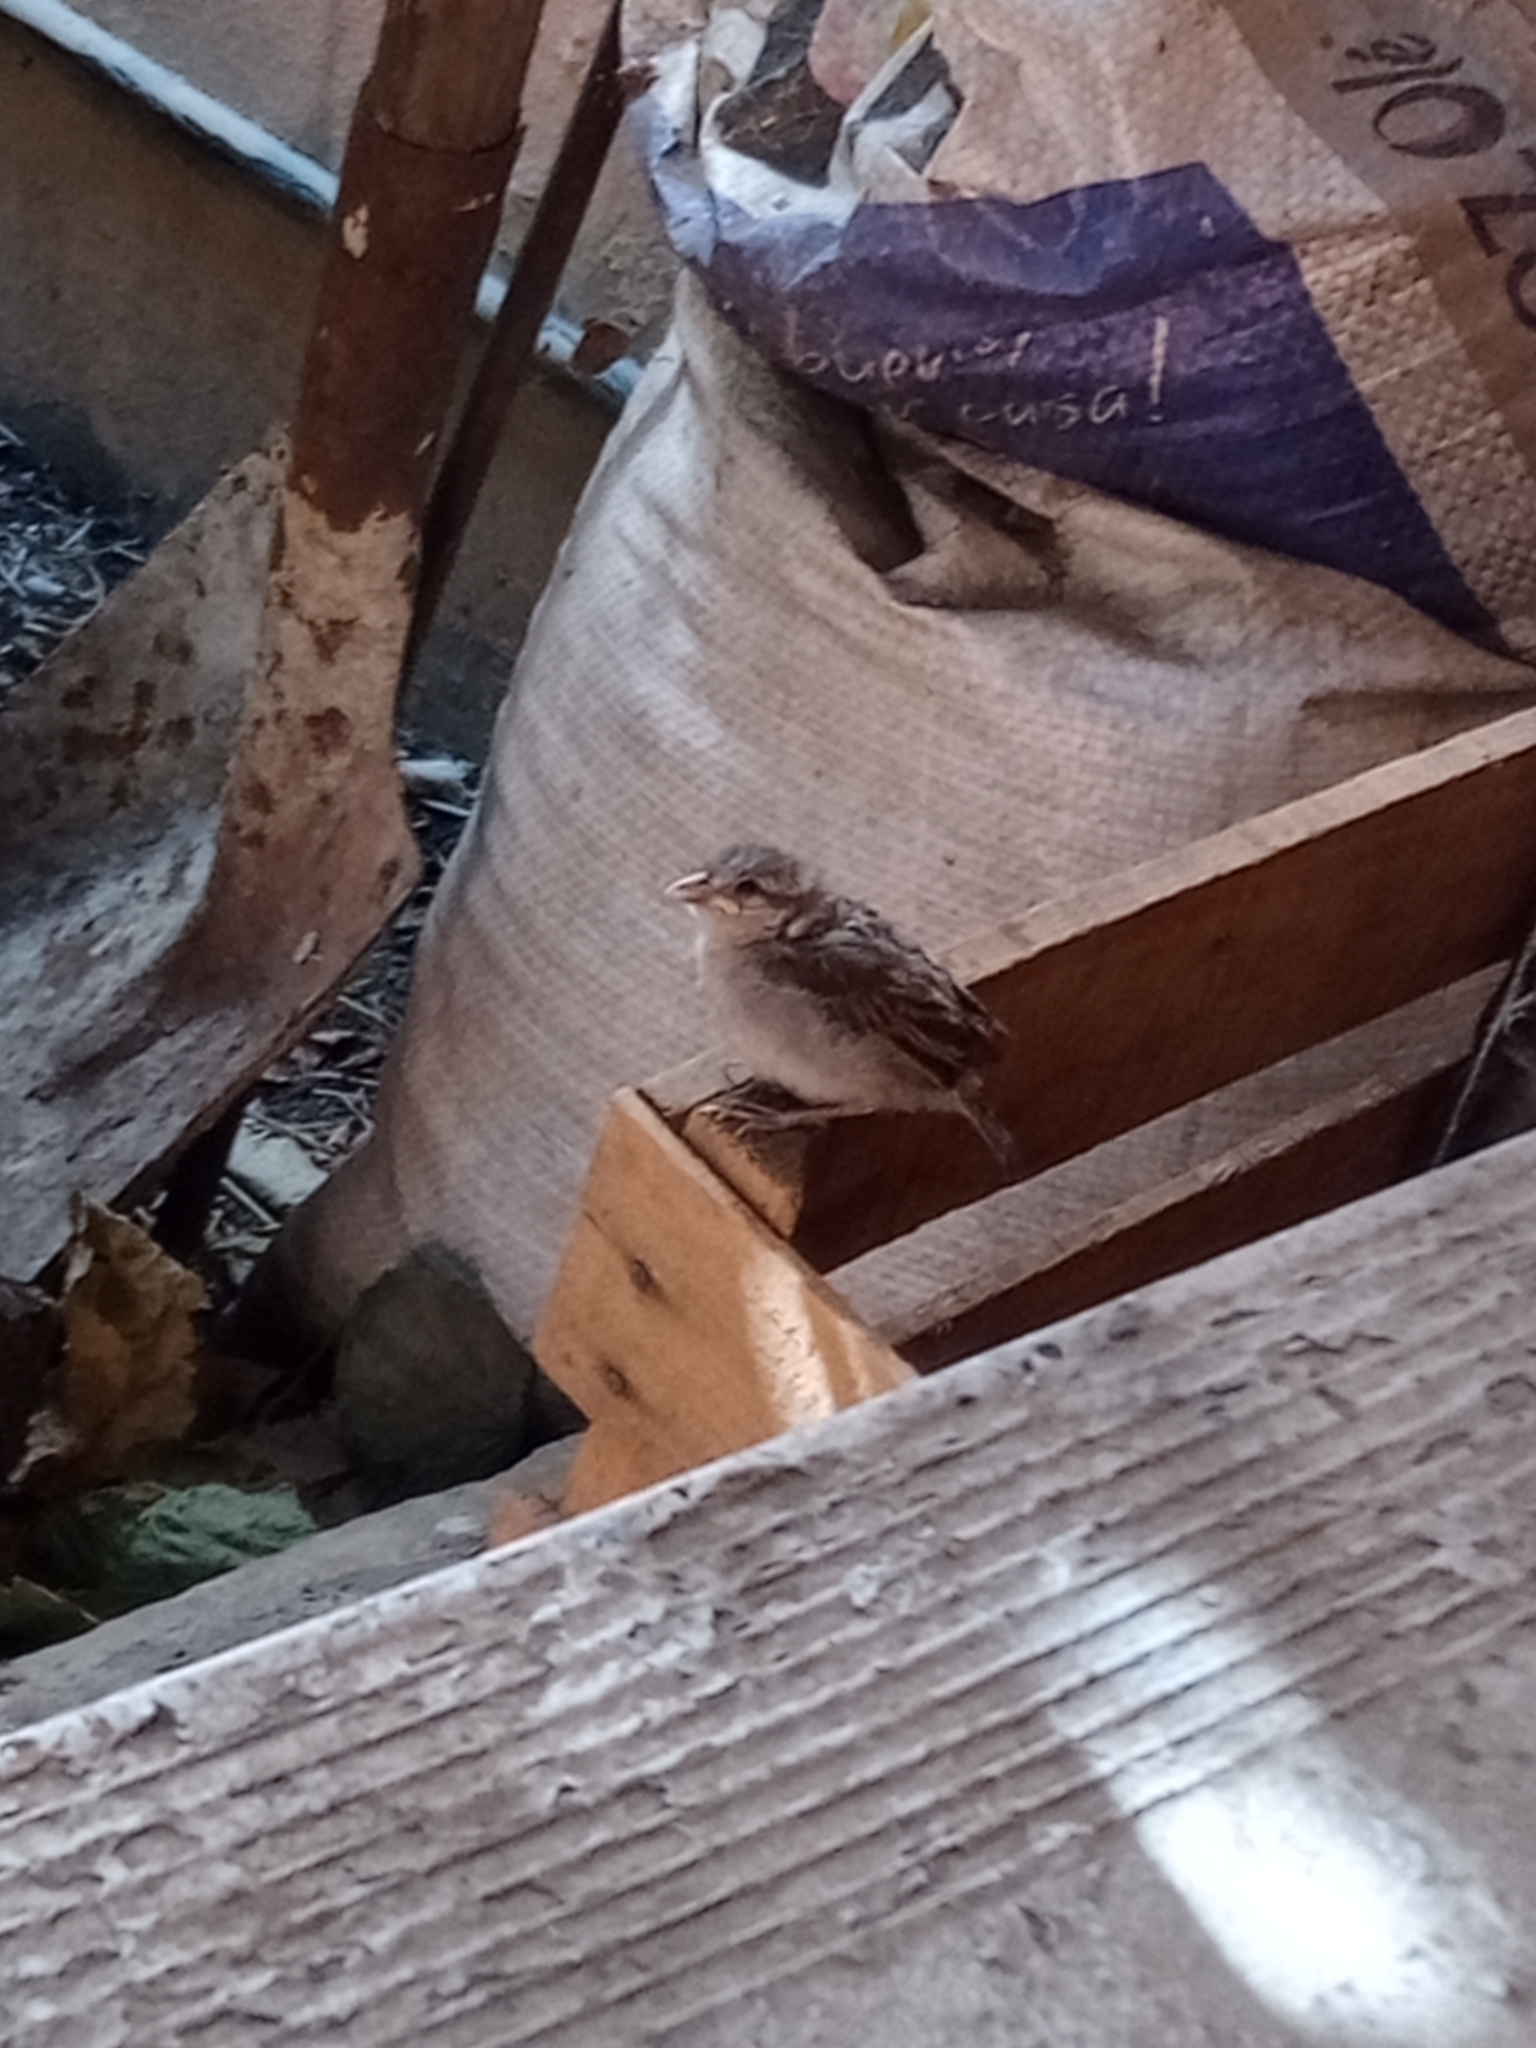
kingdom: Animalia
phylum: Chordata
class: Aves
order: Passeriformes
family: Passeridae
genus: Passer
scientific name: Passer domesticus
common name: House sparrow
